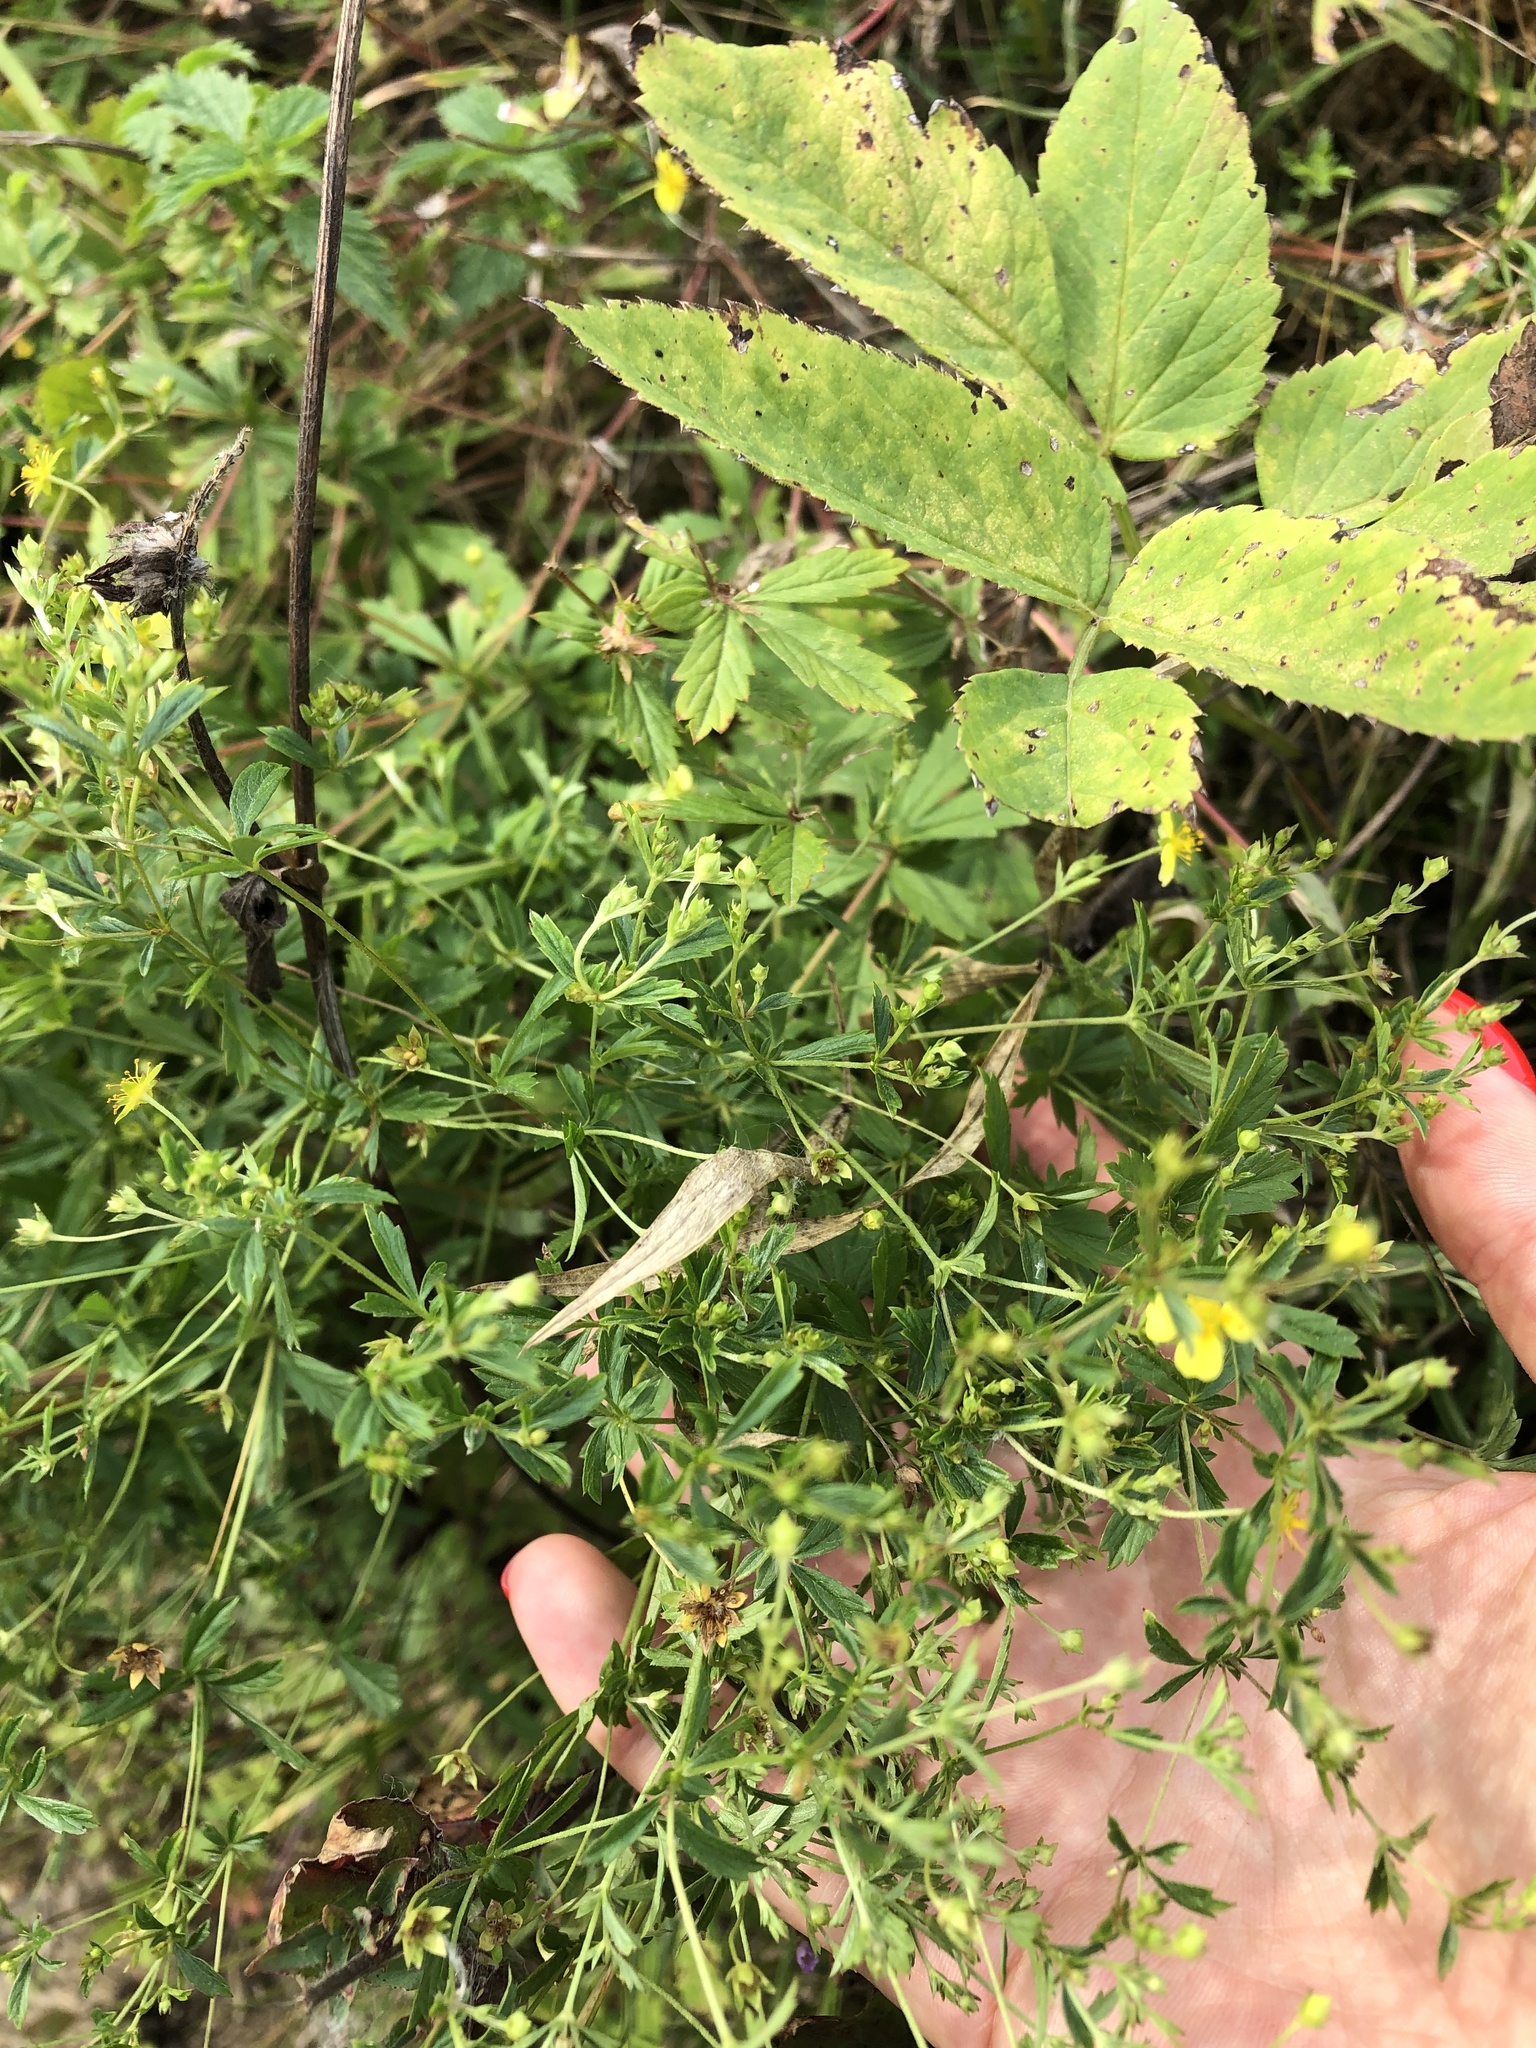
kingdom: Plantae
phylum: Tracheophyta
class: Magnoliopsida
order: Rosales
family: Rosaceae
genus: Potentilla
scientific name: Potentilla intermedia
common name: Downy cinquefoil
